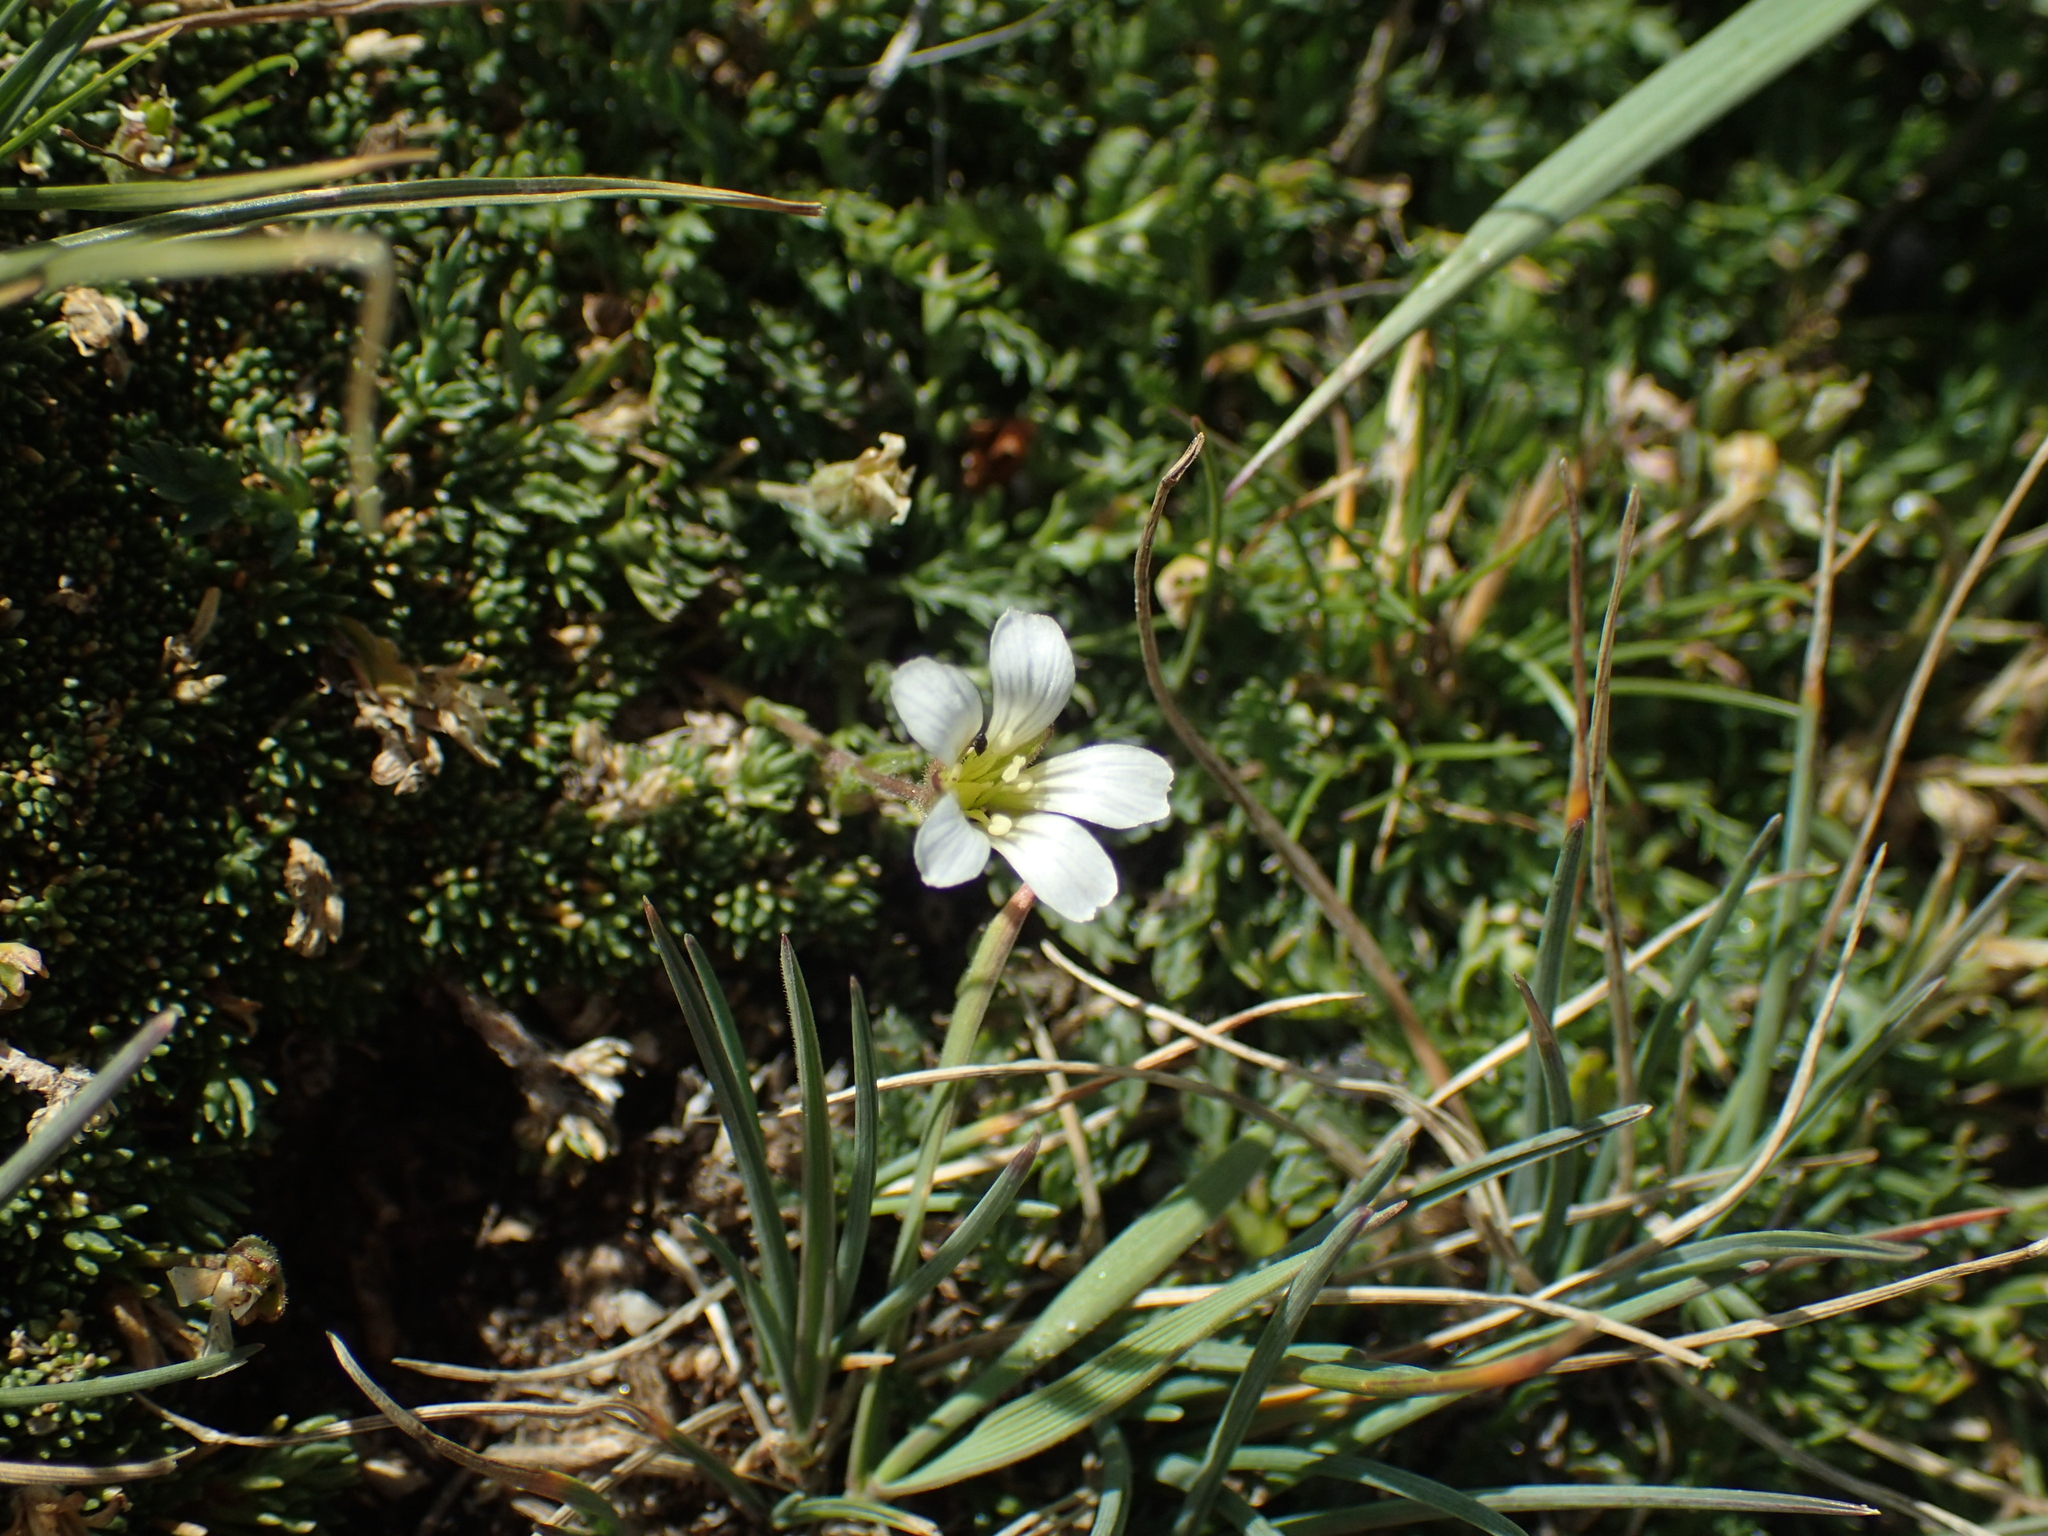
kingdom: Plantae
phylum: Tracheophyta
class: Magnoliopsida
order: Caryophyllales
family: Caryophyllaceae
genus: Cherleria
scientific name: Cherleria obtusiloba
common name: Alpine stitchwort
